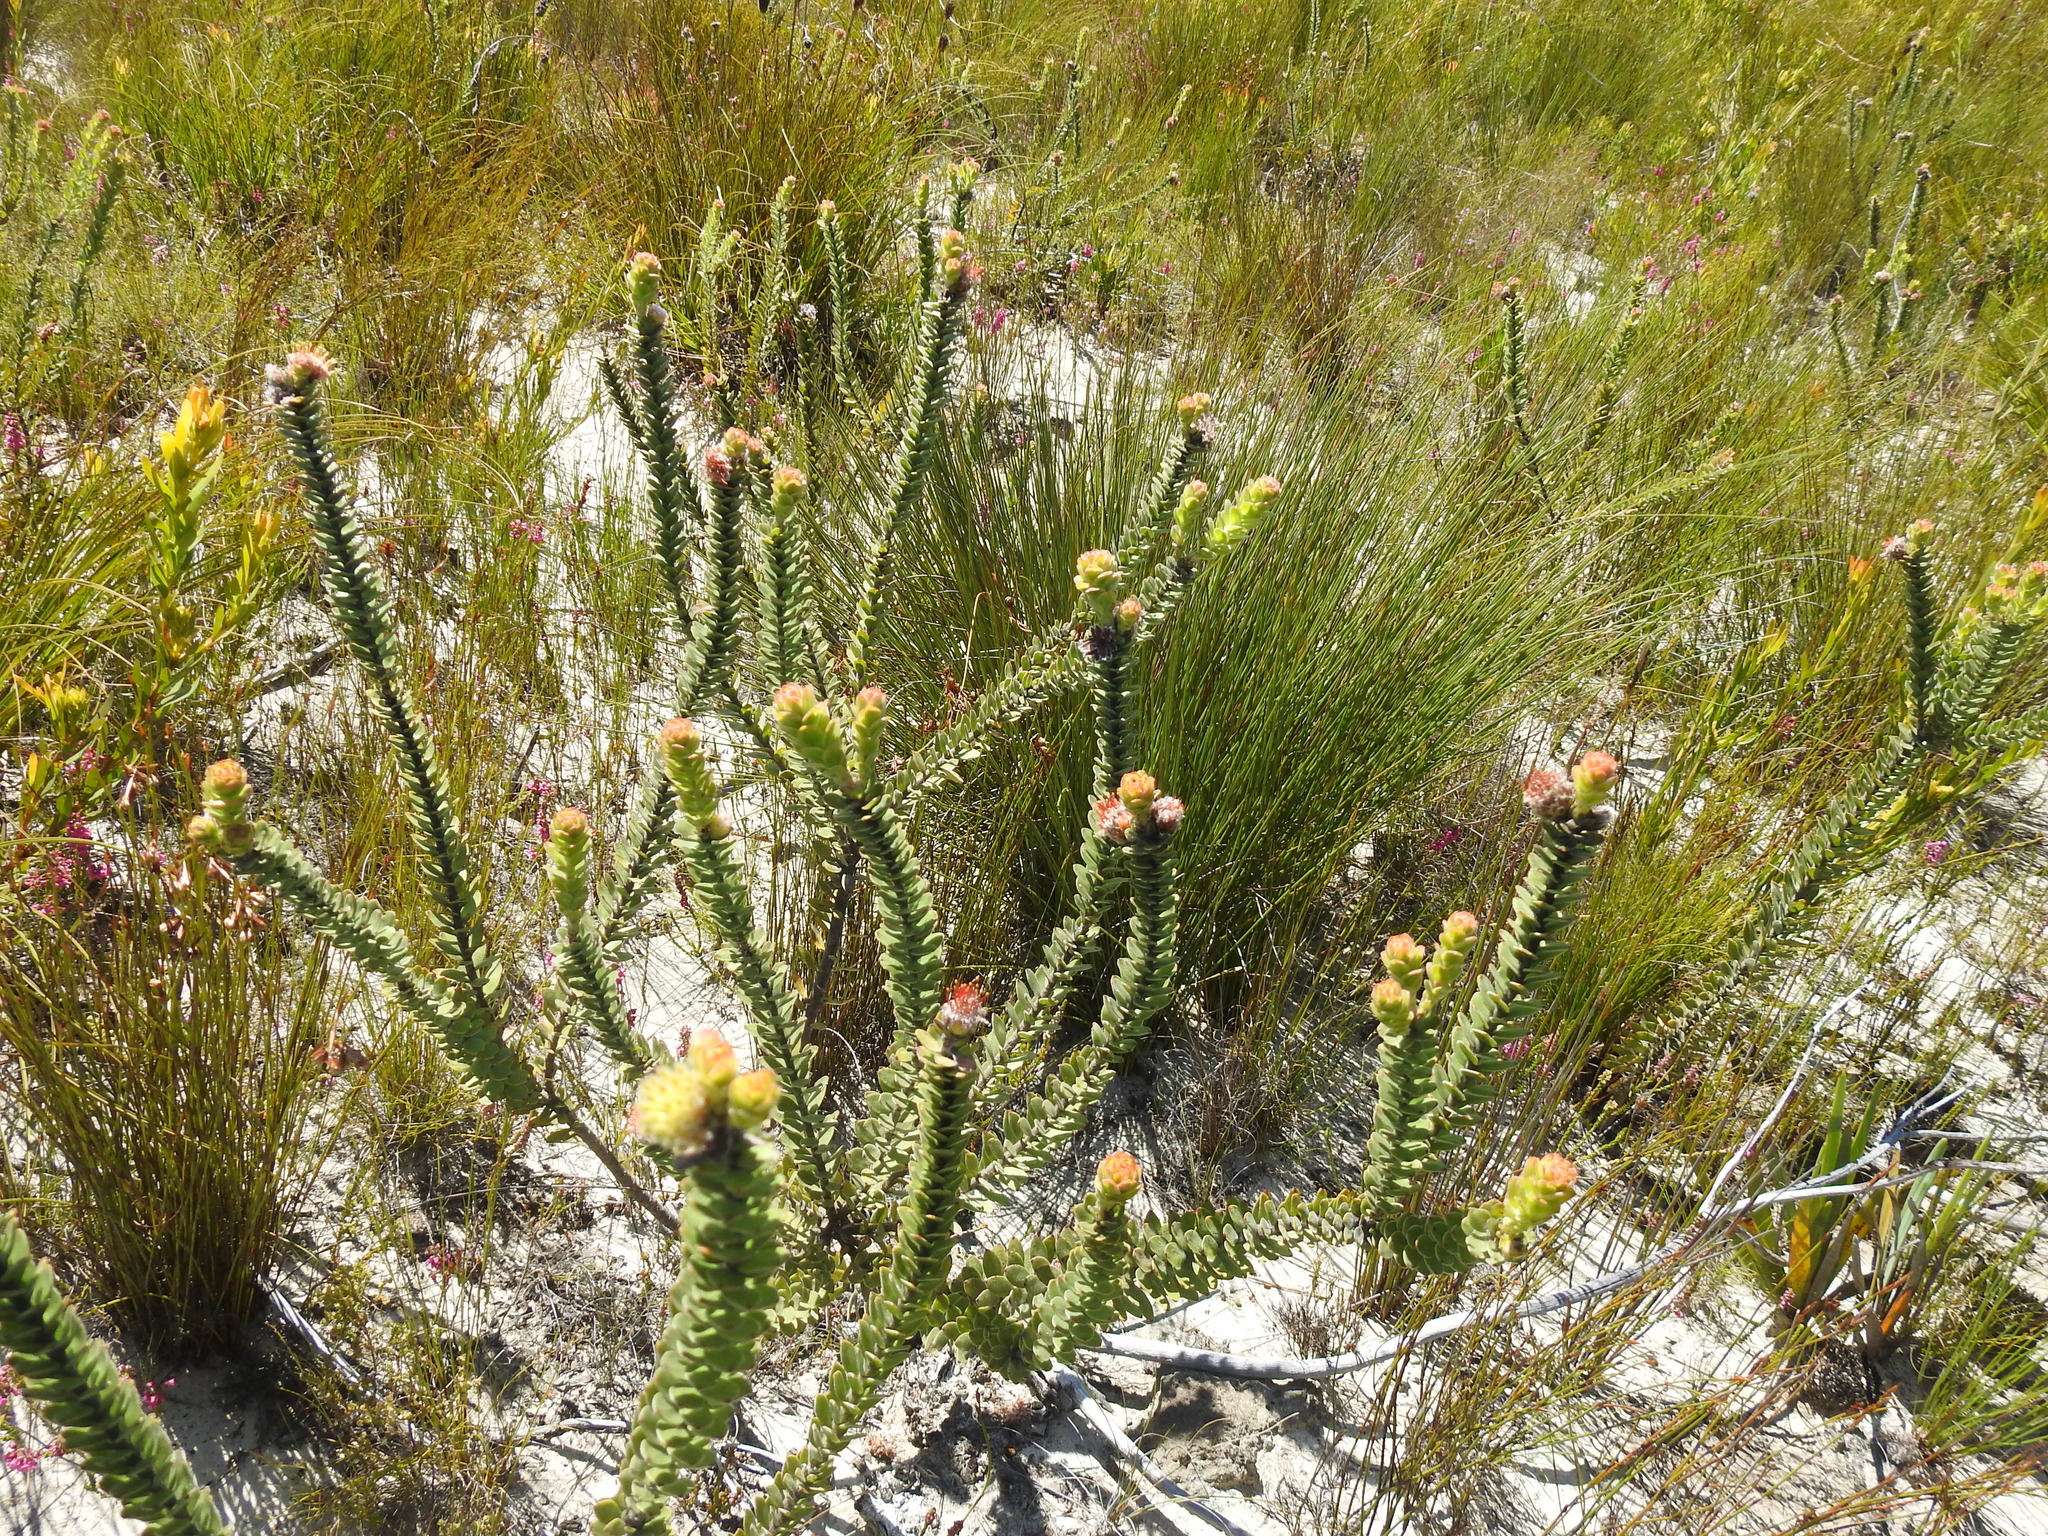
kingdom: Plantae
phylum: Tracheophyta
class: Magnoliopsida
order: Proteales
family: Proteaceae
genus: Leucospermum
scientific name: Leucospermum truncatulum
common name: Oval-leaf pincushion
